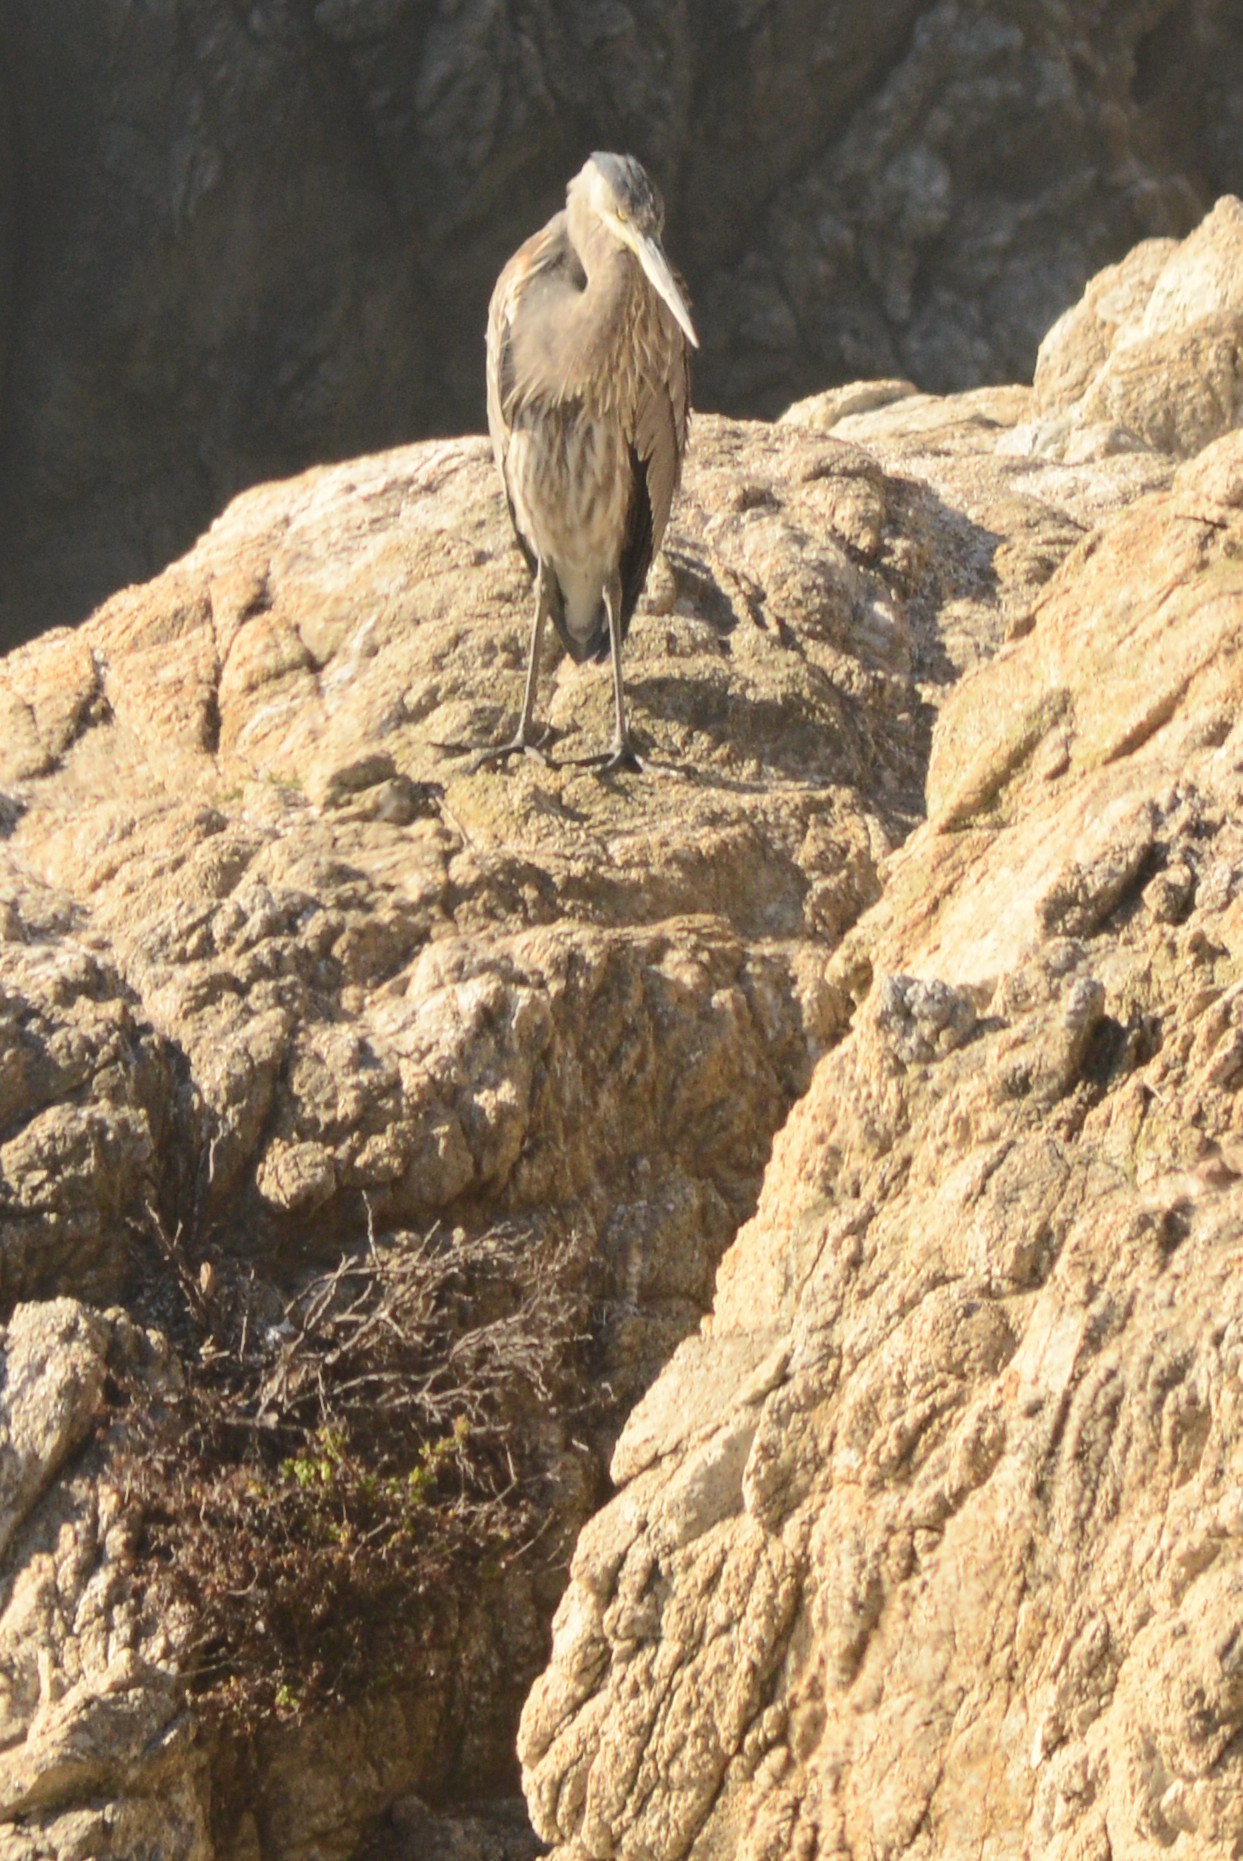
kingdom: Animalia
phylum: Chordata
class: Aves
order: Pelecaniformes
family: Ardeidae
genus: Ardea
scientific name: Ardea herodias
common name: Great blue heron
